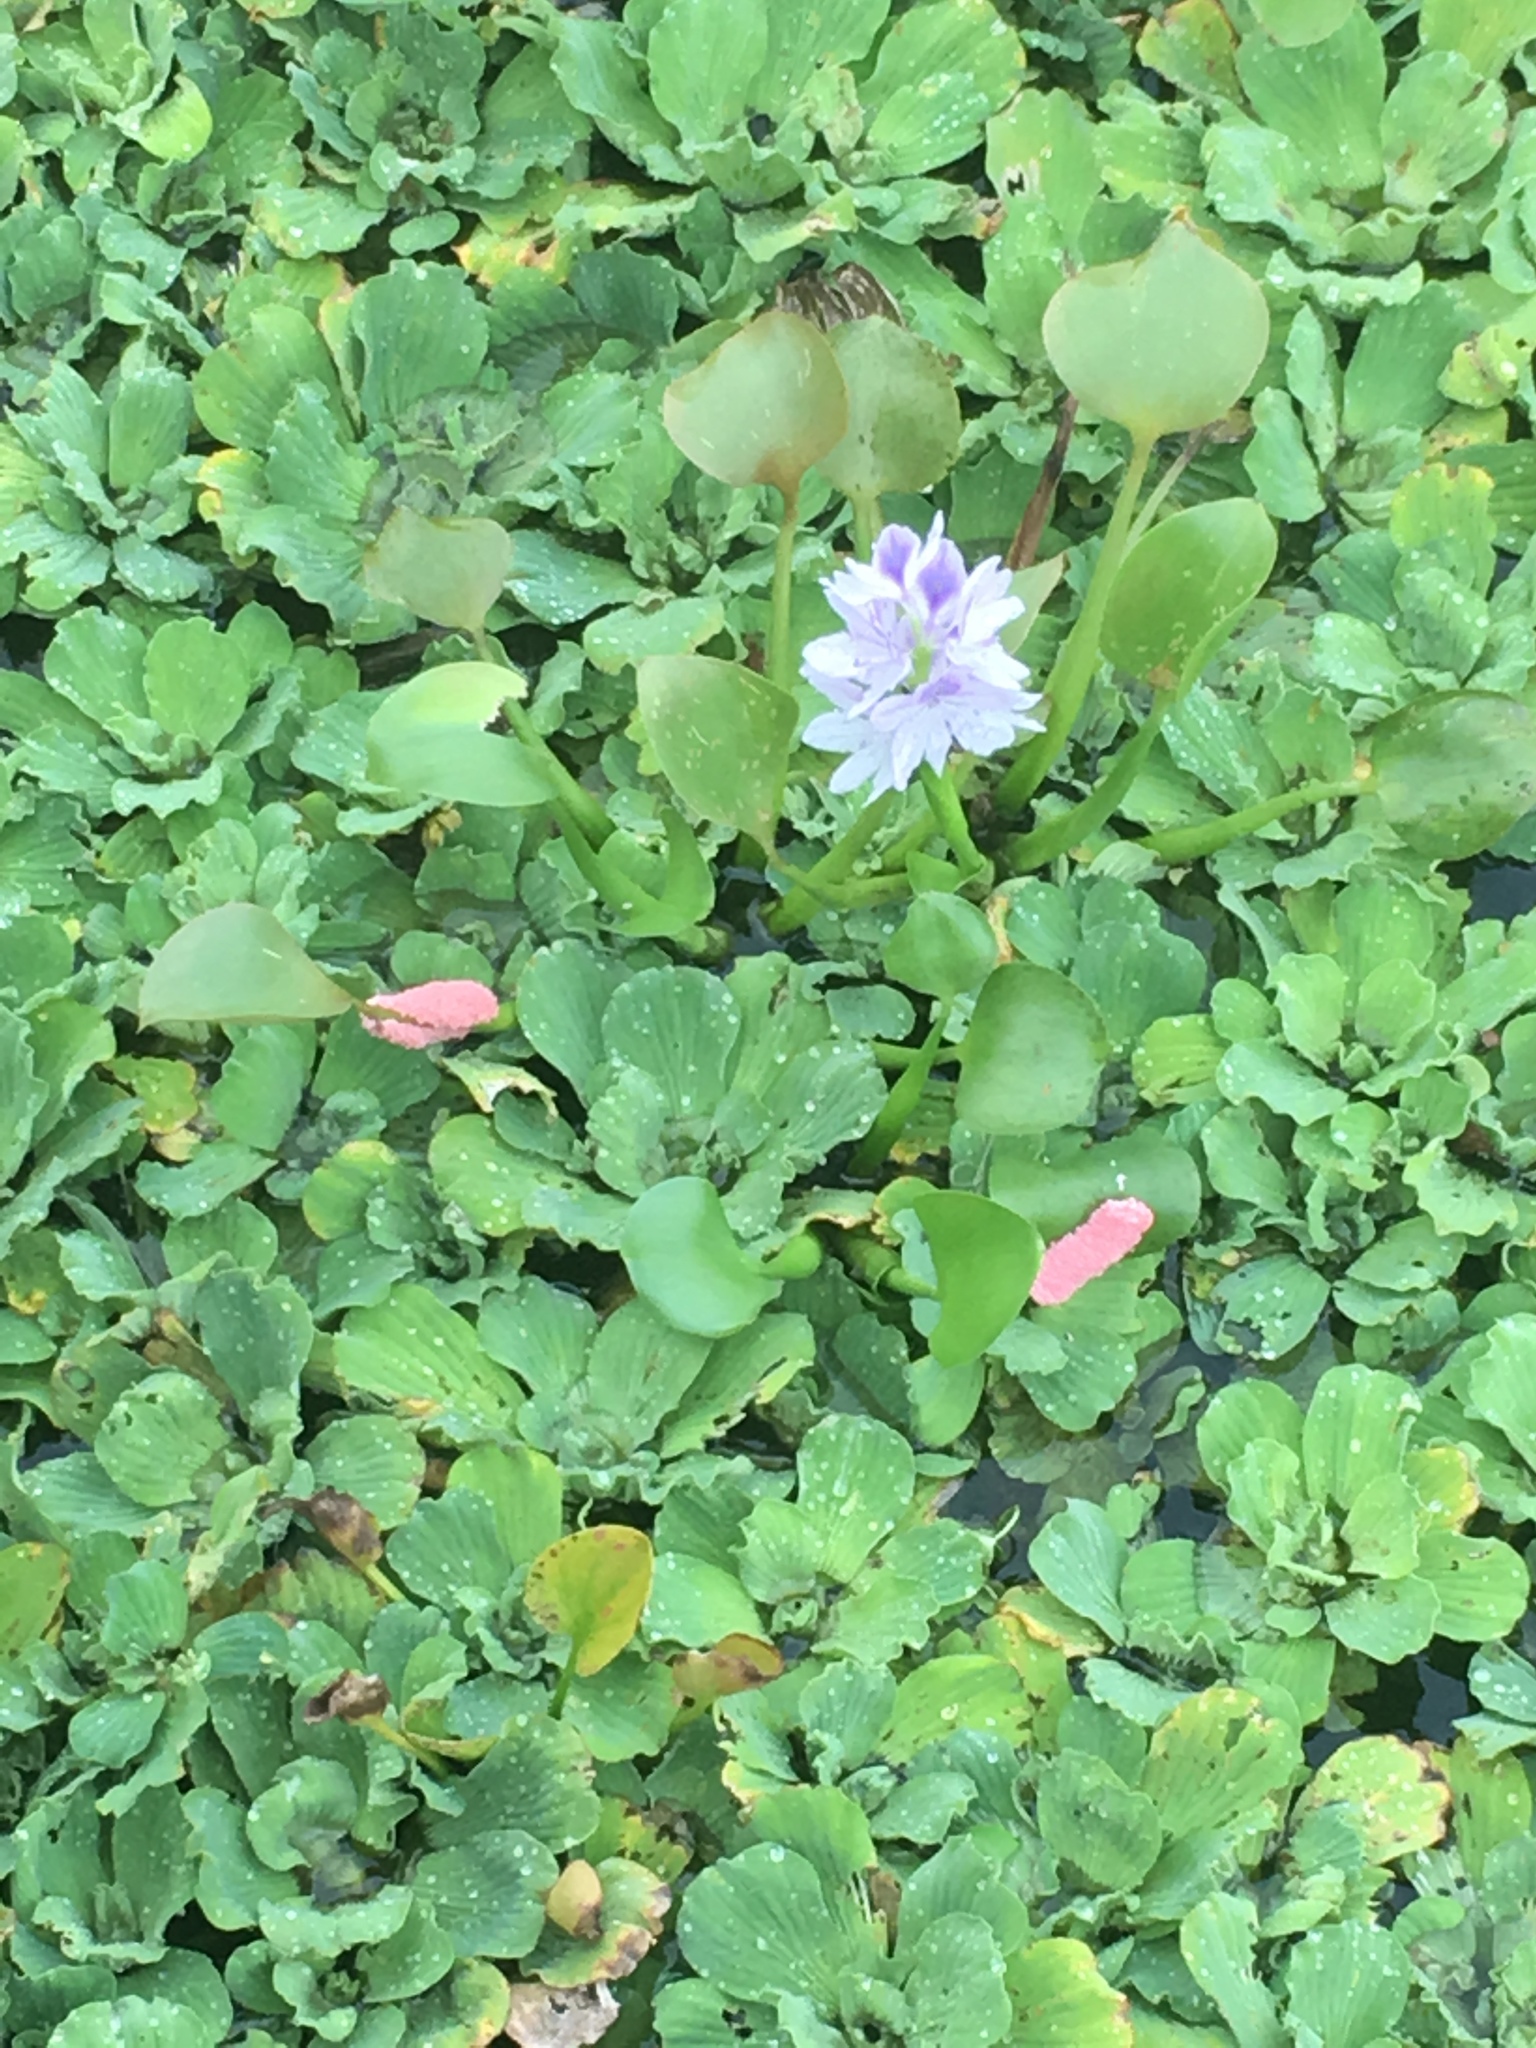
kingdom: Plantae
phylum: Tracheophyta
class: Liliopsida
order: Commelinales
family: Pontederiaceae
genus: Pontederia
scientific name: Pontederia crassipes
